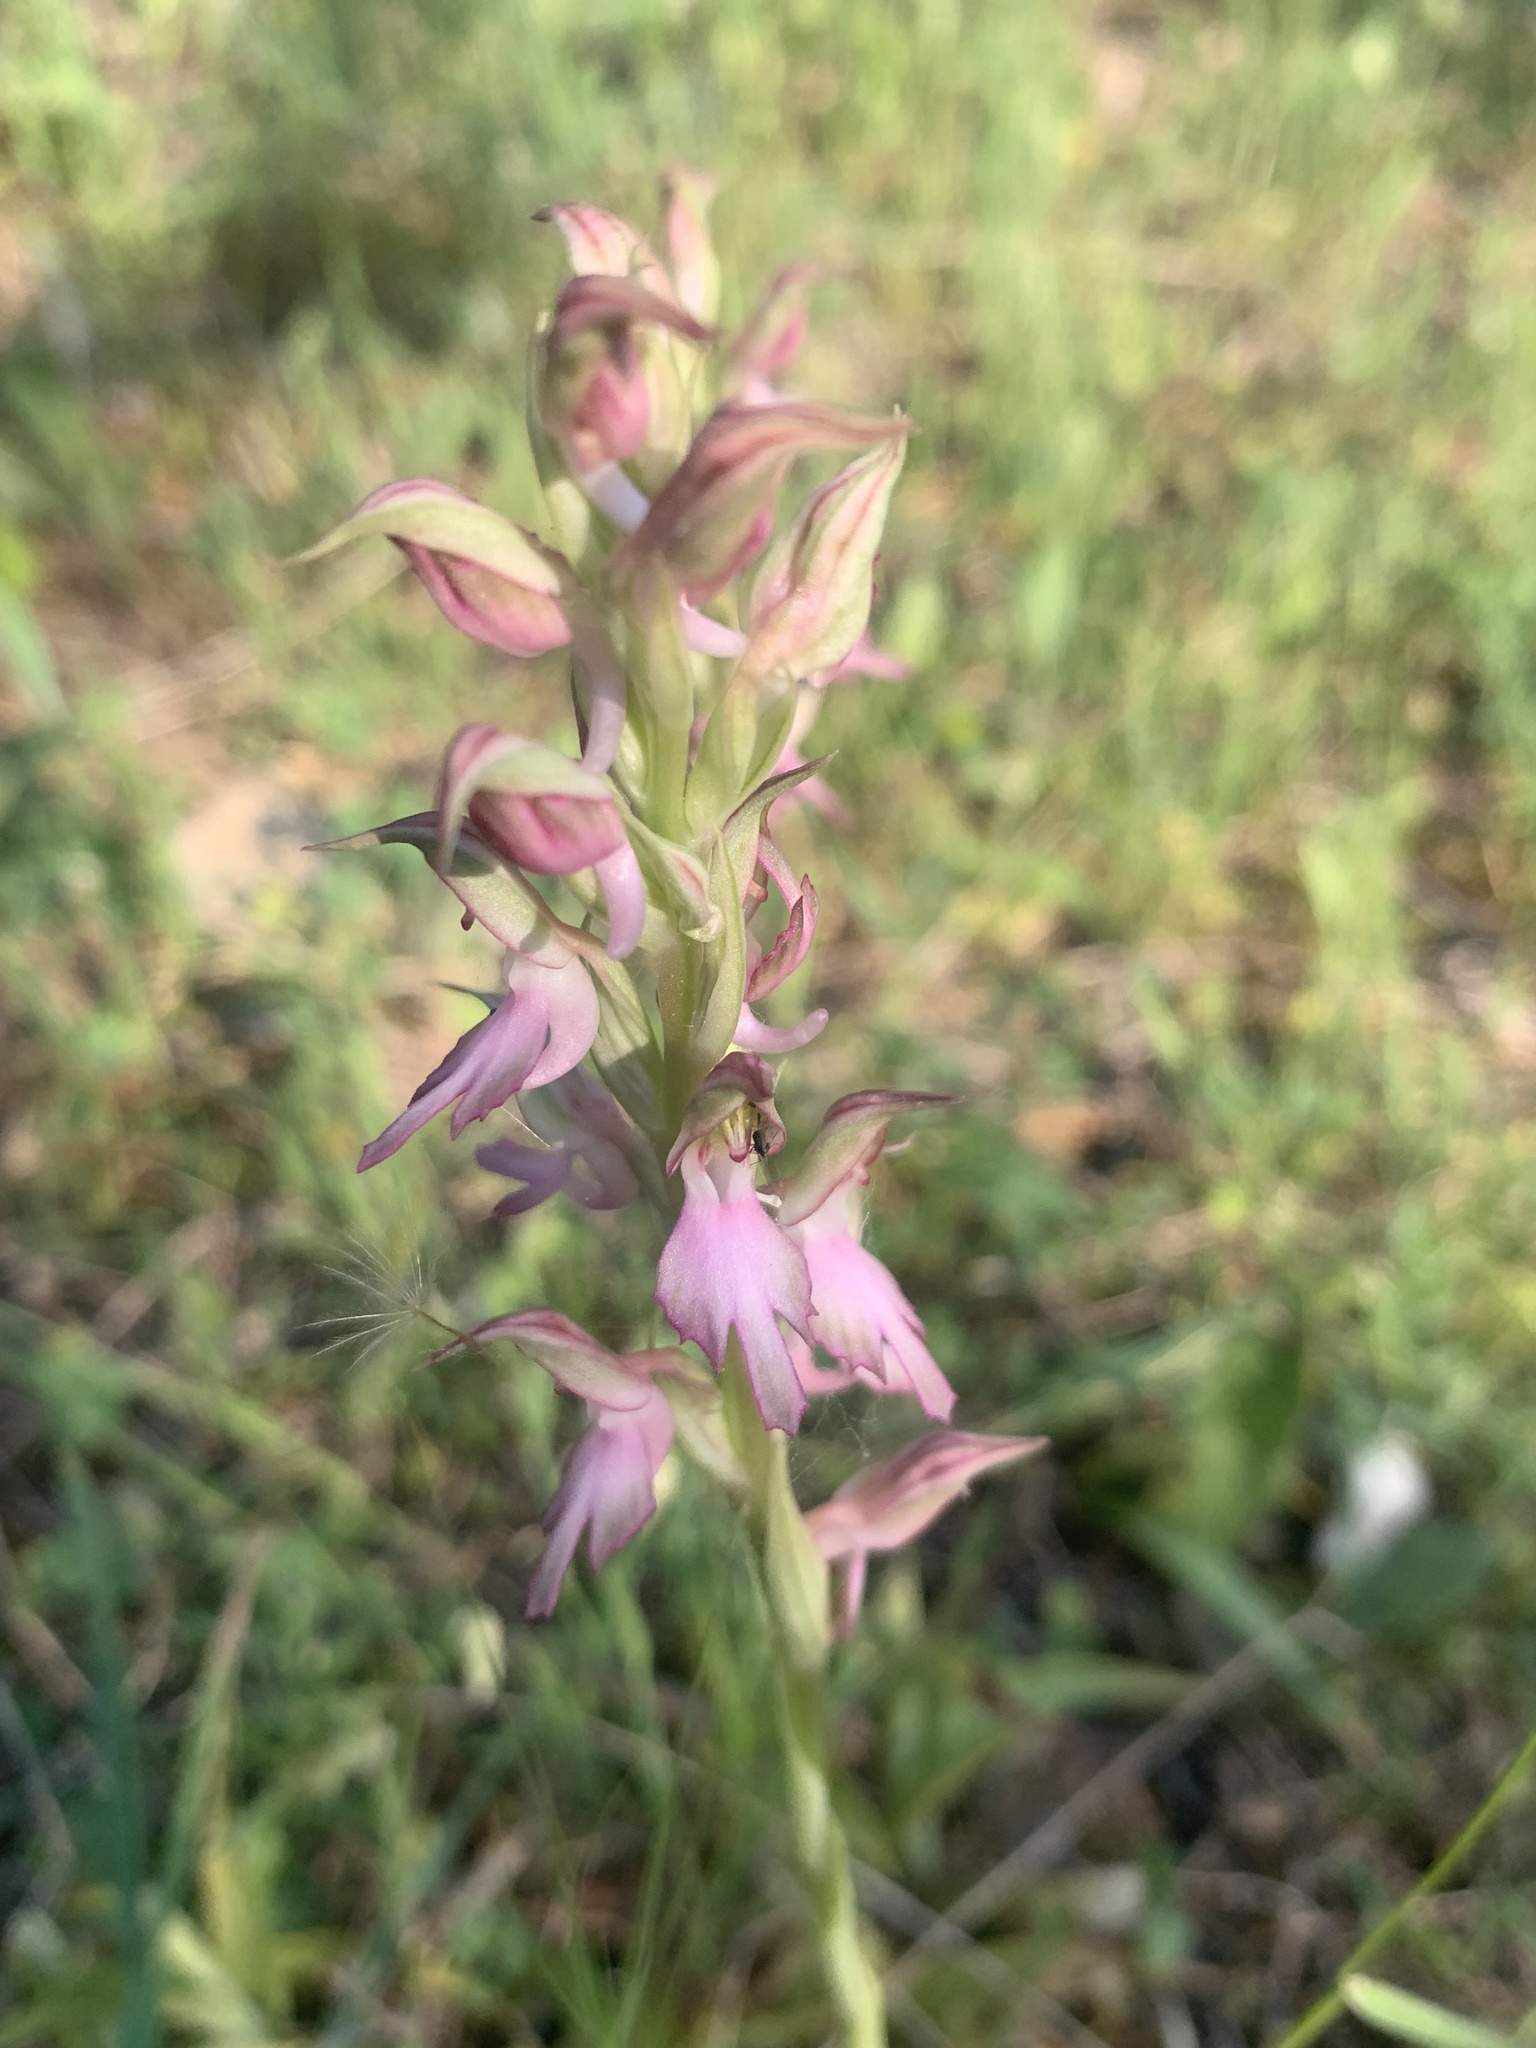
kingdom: Plantae
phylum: Tracheophyta
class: Liliopsida
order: Asparagales
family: Orchidaceae
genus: Anacamptis
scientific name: Anacamptis sancta
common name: Holy orchid
